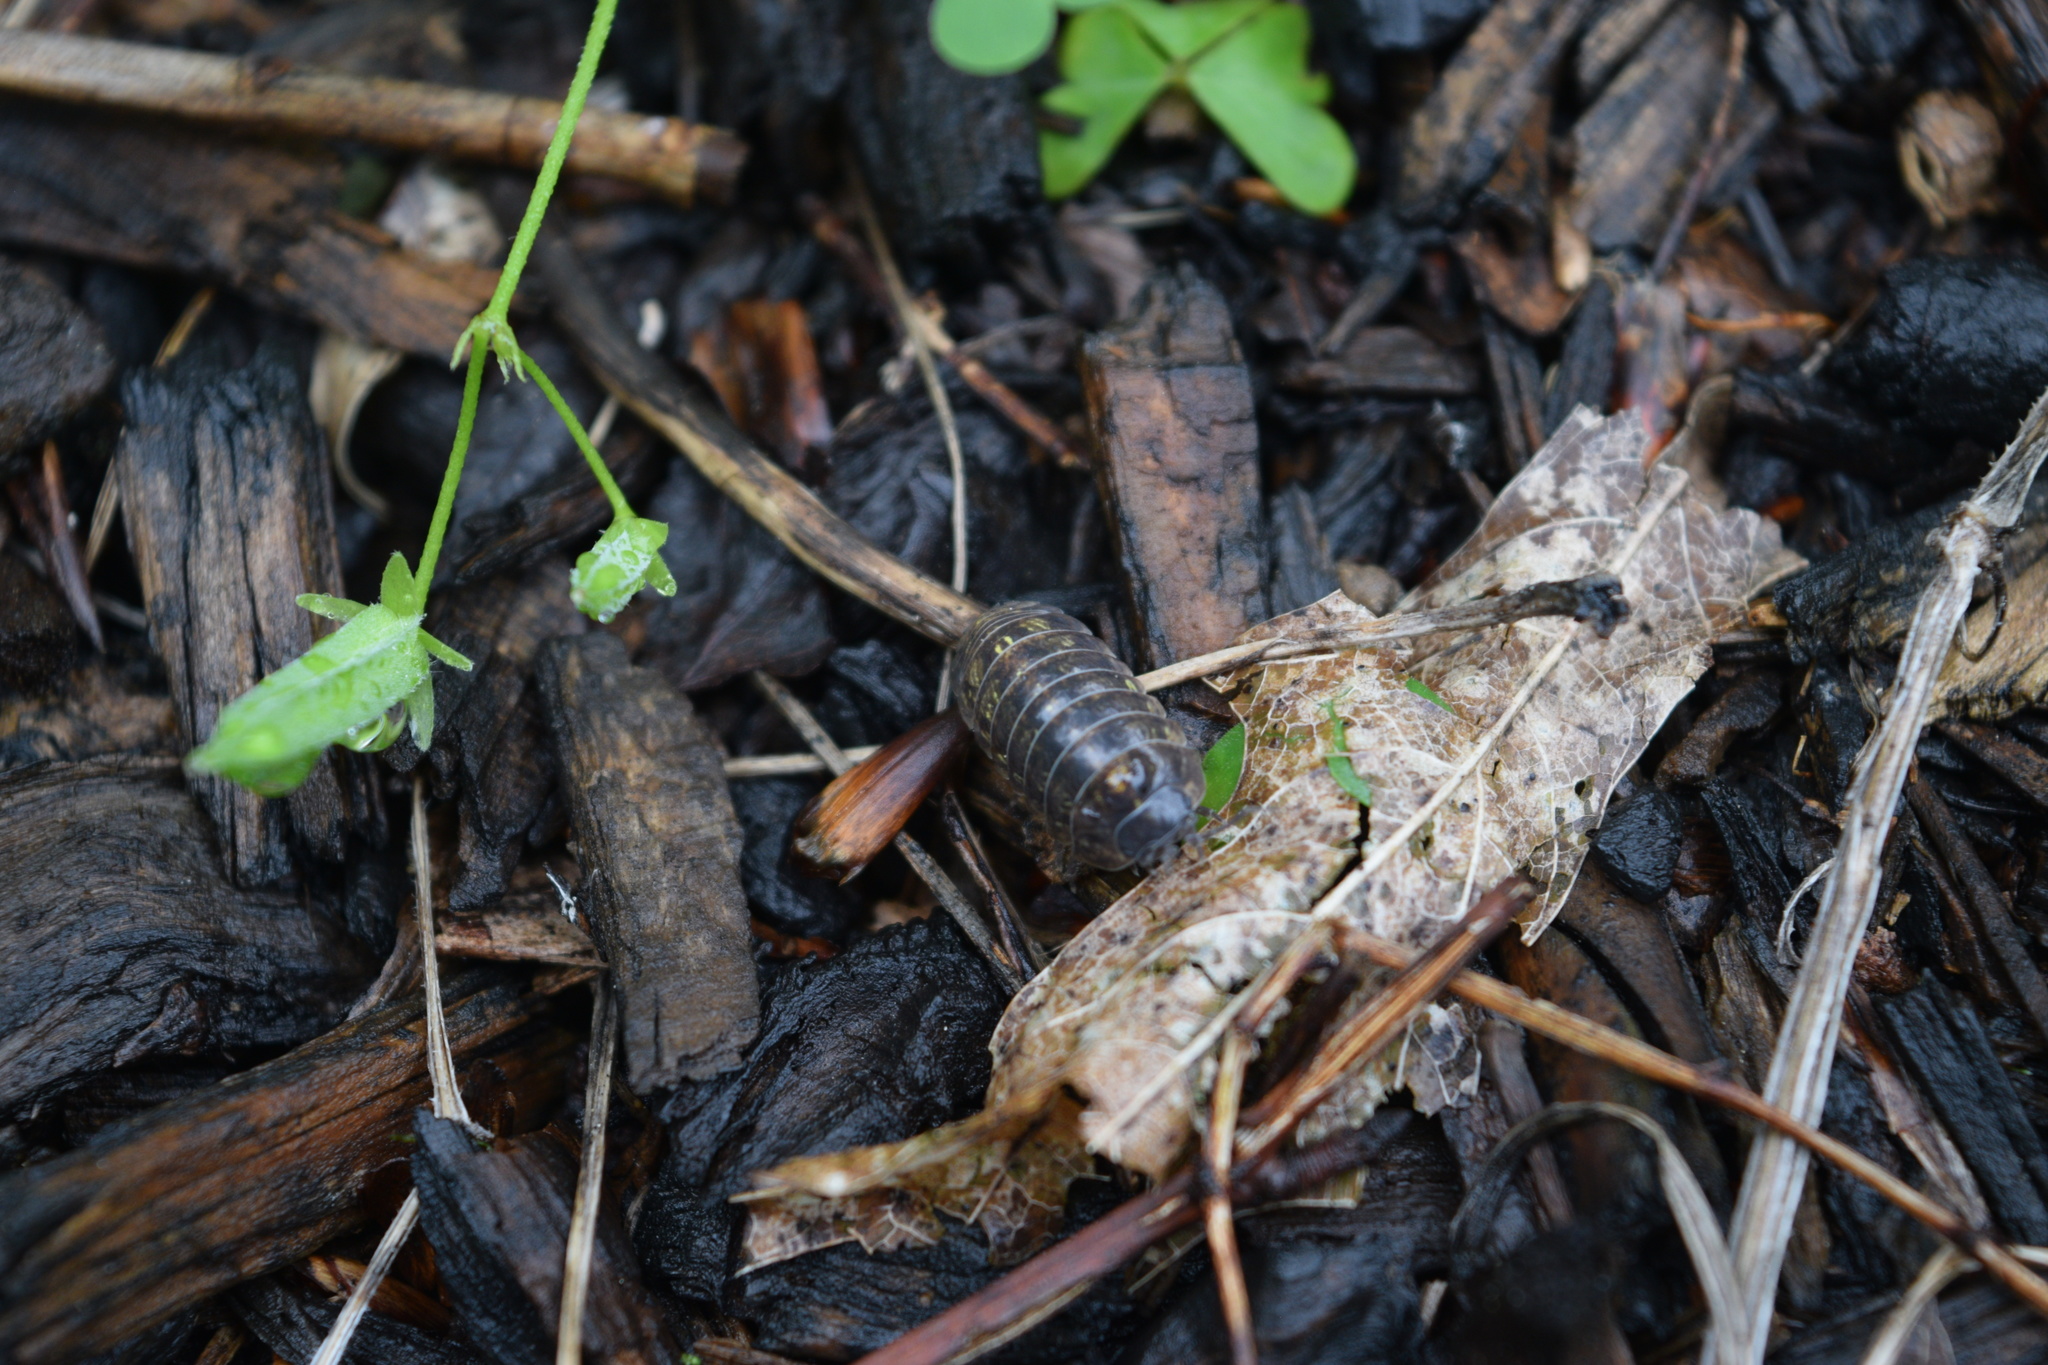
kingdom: Animalia
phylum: Arthropoda
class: Malacostraca
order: Isopoda
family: Armadillidiidae
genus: Armadillidium
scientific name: Armadillidium vulgare
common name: Common pill woodlouse
